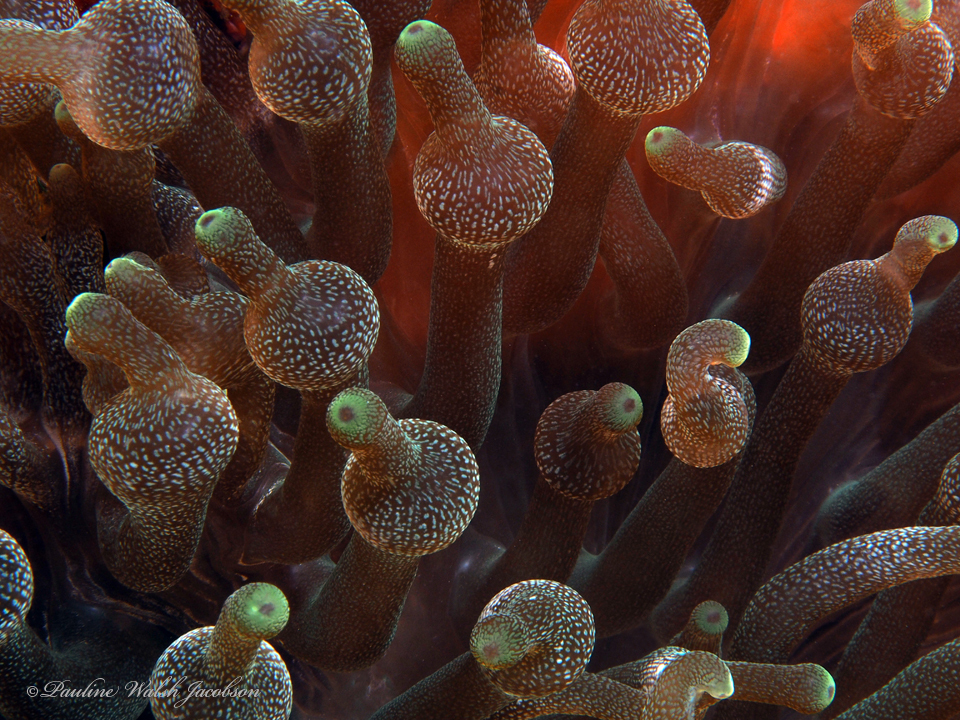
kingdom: Animalia
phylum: Cnidaria
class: Anthozoa
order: Actiniaria
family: Actiniidae
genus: Entacmaea
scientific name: Entacmaea quadricolor
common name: Bulb tentacle sea anemone
